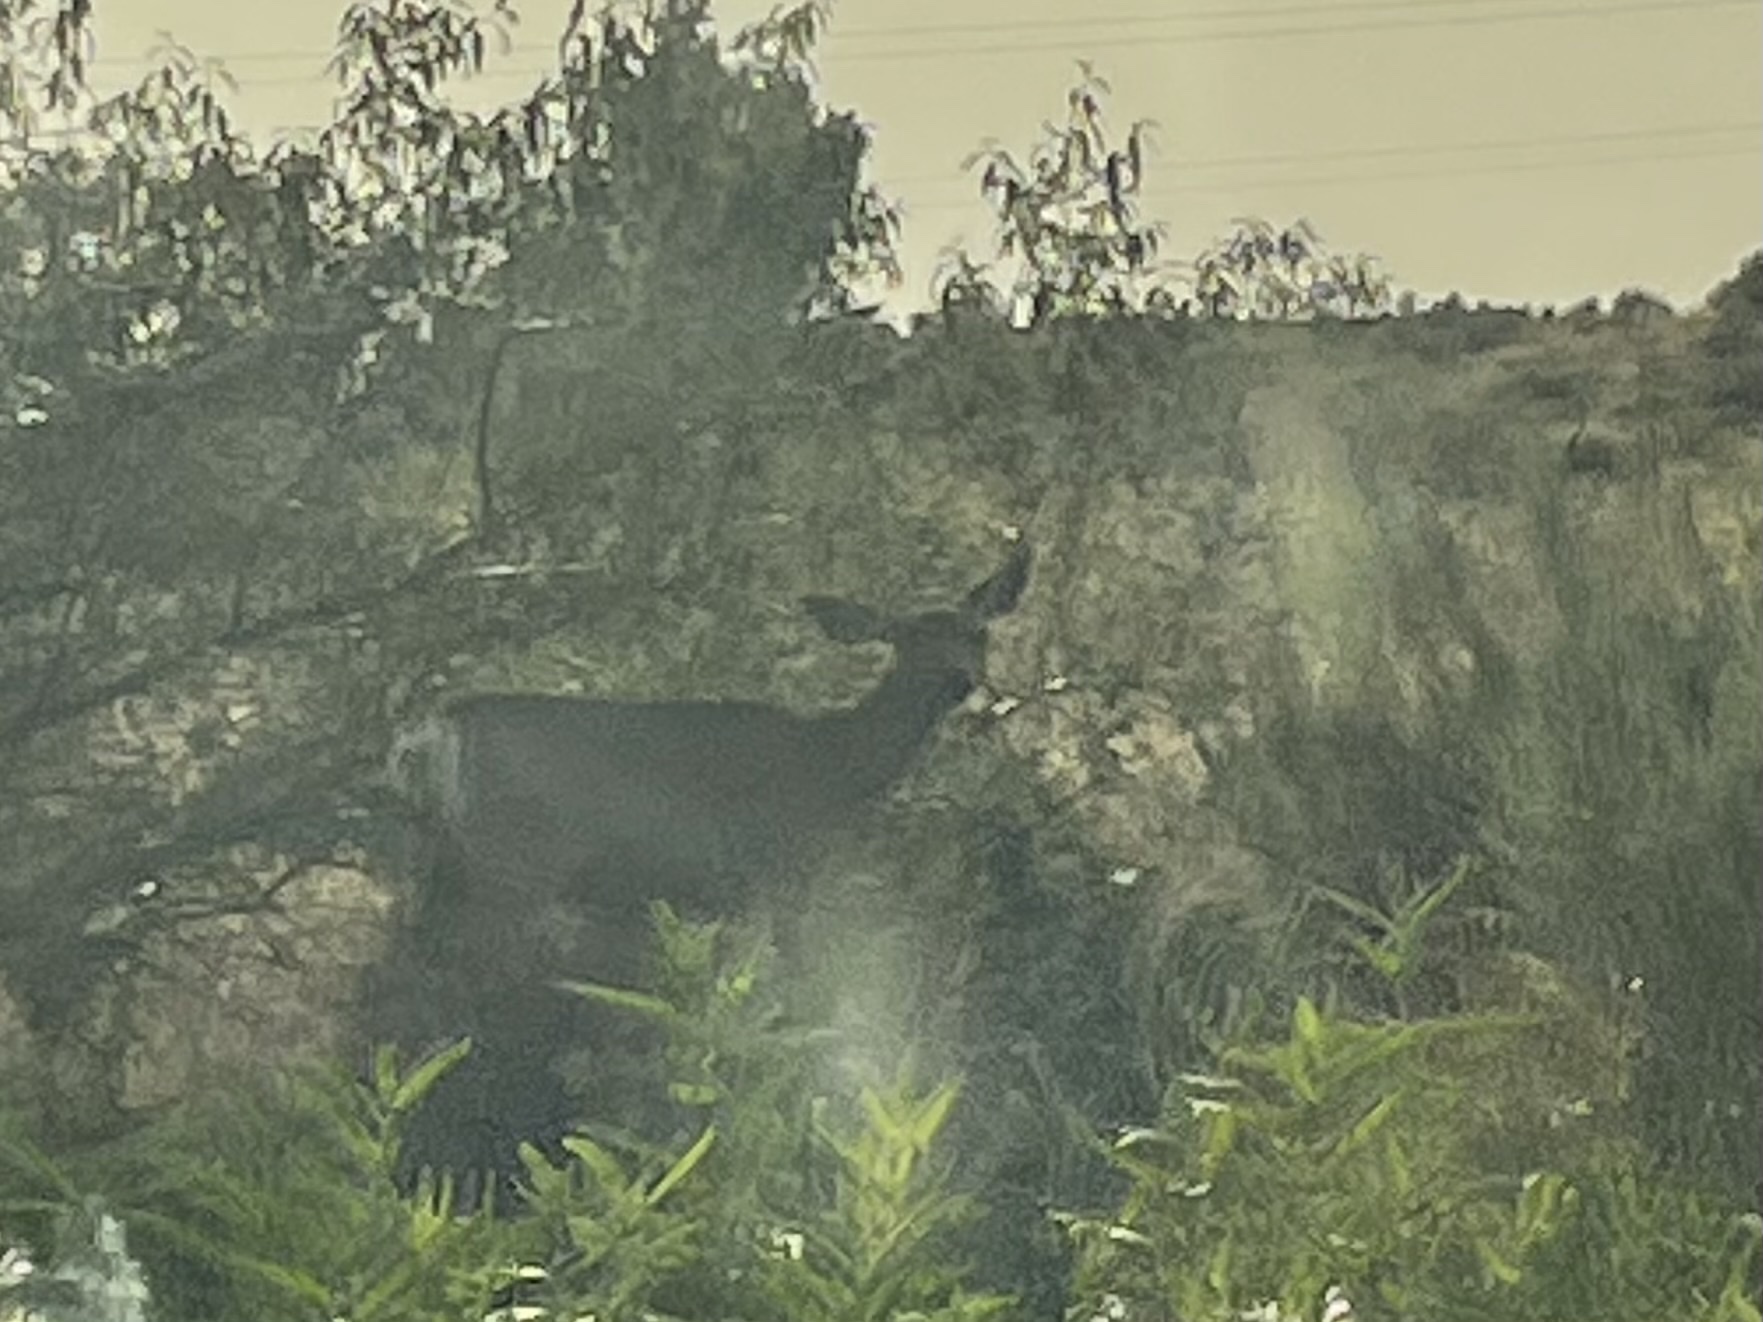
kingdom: Animalia
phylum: Chordata
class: Mammalia
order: Artiodactyla
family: Cervidae
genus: Odocoileus
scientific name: Odocoileus hemionus
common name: Mule deer
